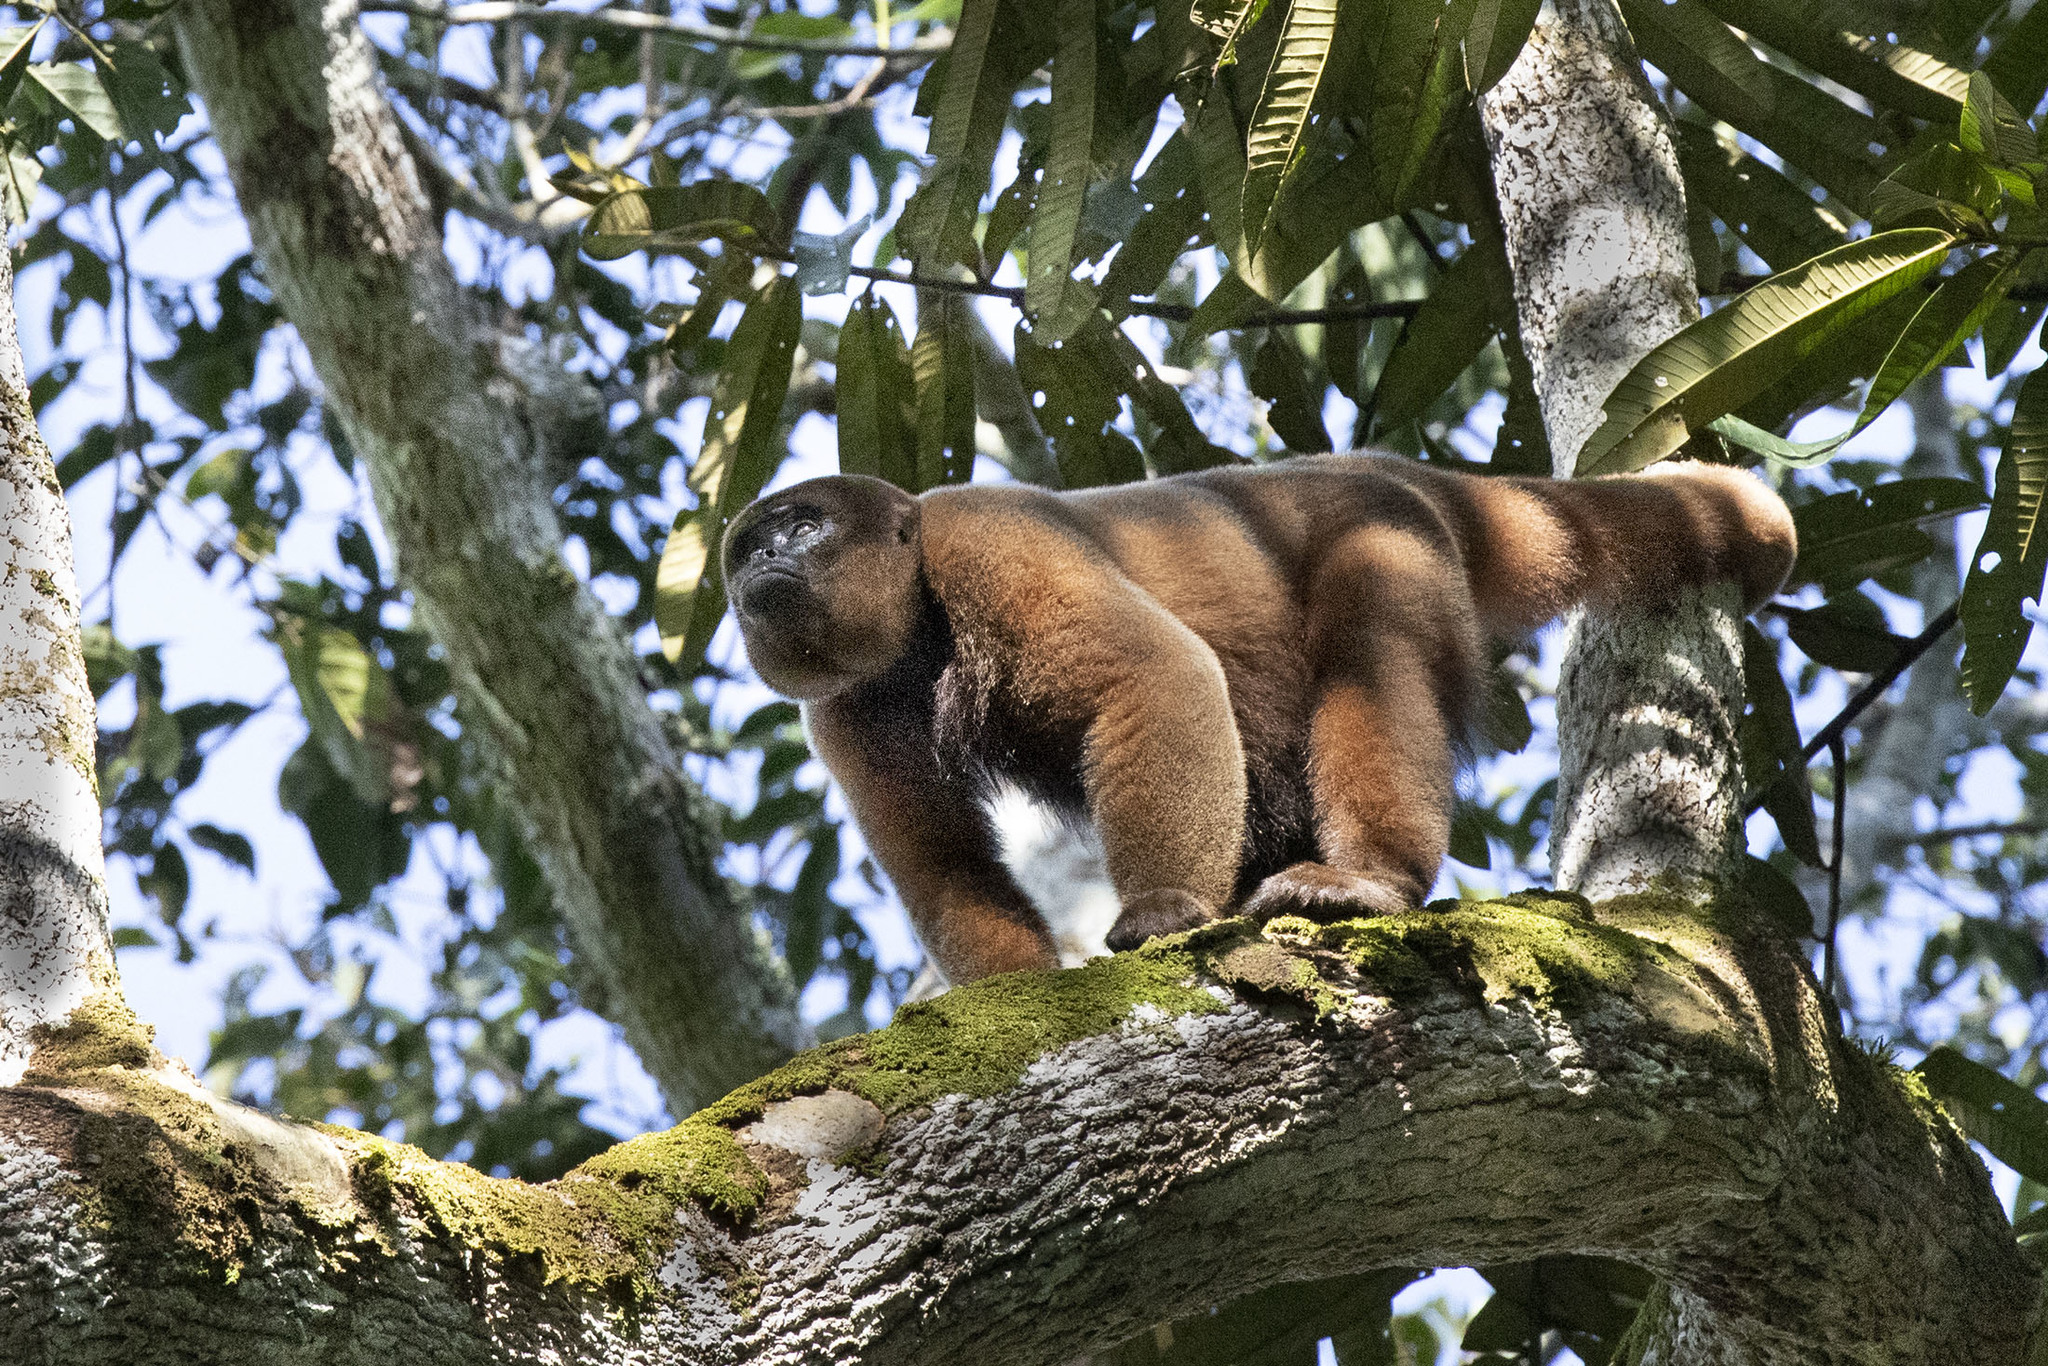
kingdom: Animalia
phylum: Chordata
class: Mammalia
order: Primates
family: Atelidae
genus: Lagothrix
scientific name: Lagothrix lagothricha
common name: Brown woolly monkey
